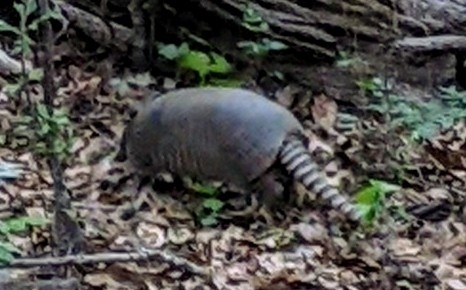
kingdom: Animalia
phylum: Chordata
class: Mammalia
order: Cingulata
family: Dasypodidae
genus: Dasypus
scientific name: Dasypus novemcinctus
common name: Nine-banded armadillo
